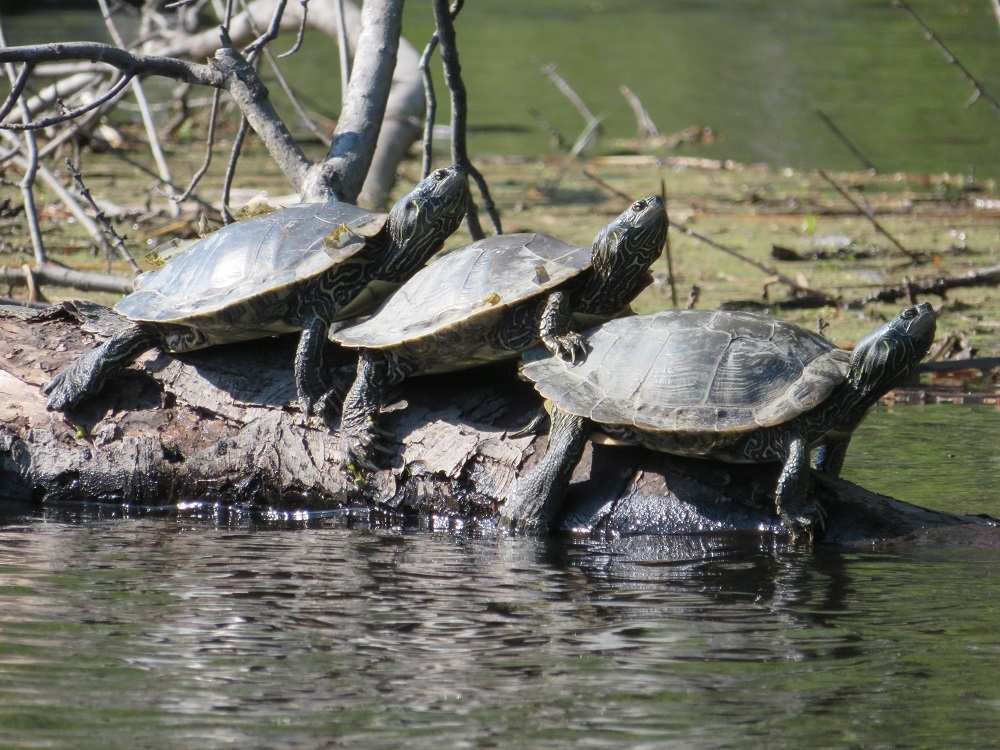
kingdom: Animalia
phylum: Chordata
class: Testudines
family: Emydidae
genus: Graptemys
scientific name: Graptemys geographica
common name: Common map turtle
